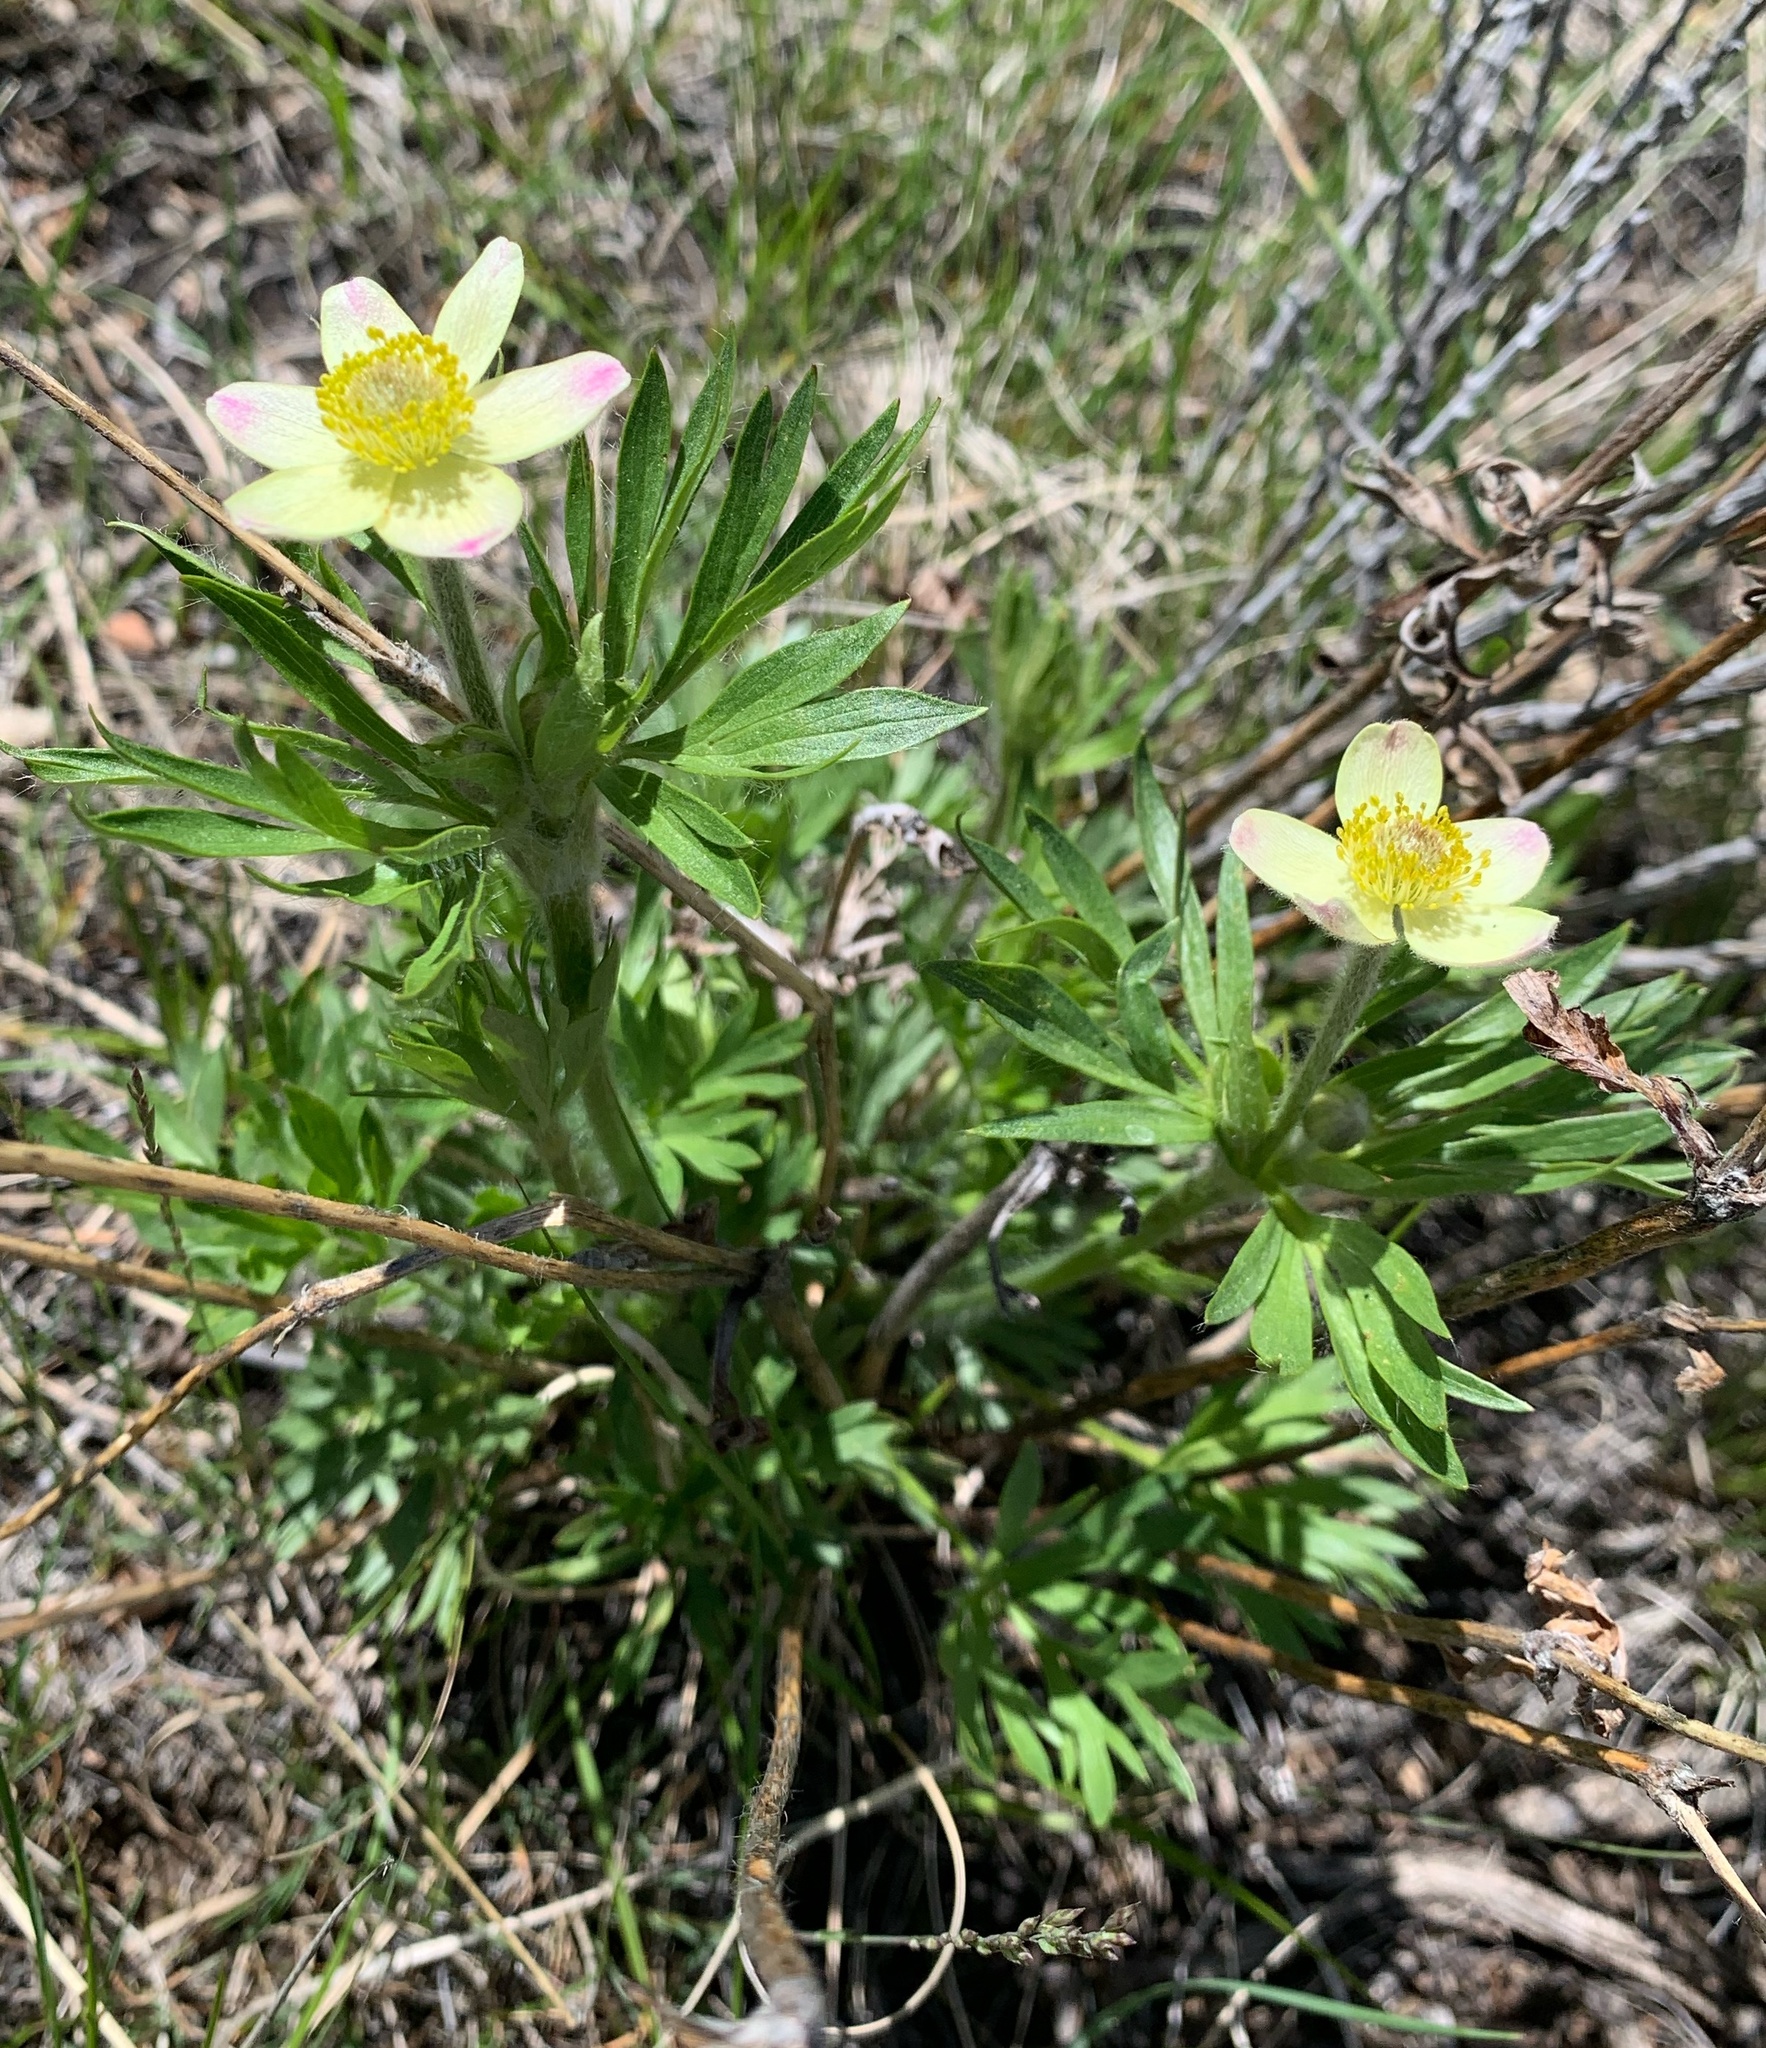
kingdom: Plantae
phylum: Tracheophyta
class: Magnoliopsida
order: Ranunculales
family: Ranunculaceae
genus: Anemone
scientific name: Anemone multifida
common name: Bird's-foot anemone
